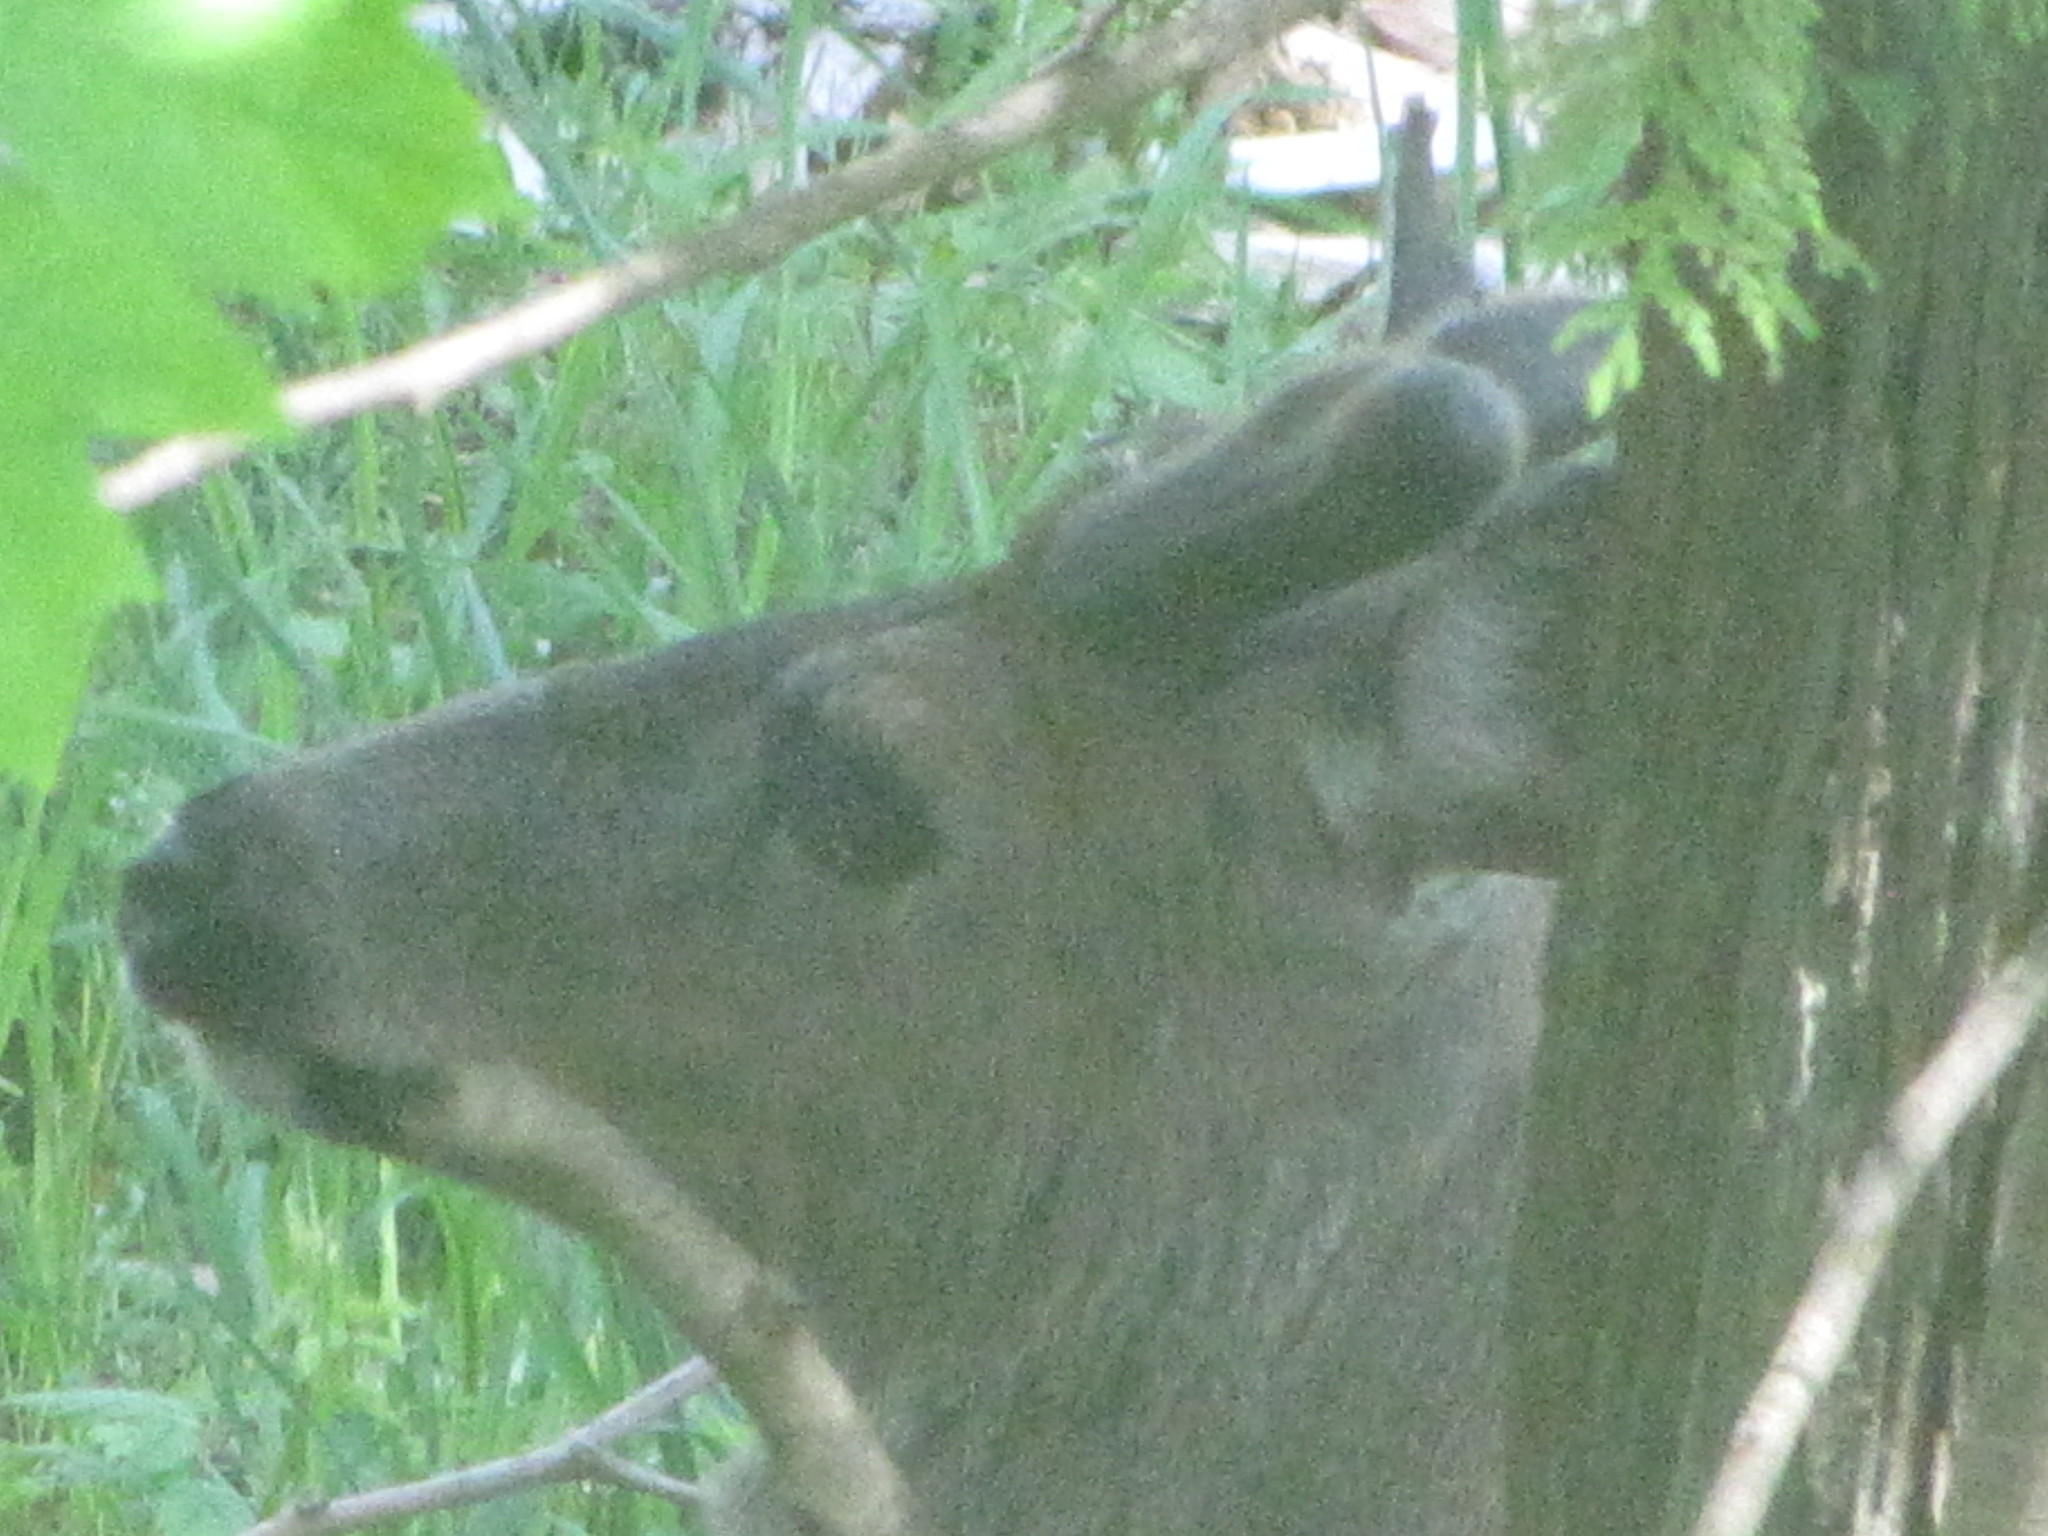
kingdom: Animalia
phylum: Chordata
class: Mammalia
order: Artiodactyla
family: Cervidae
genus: Odocoileus
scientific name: Odocoileus hemionus
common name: Mule deer
